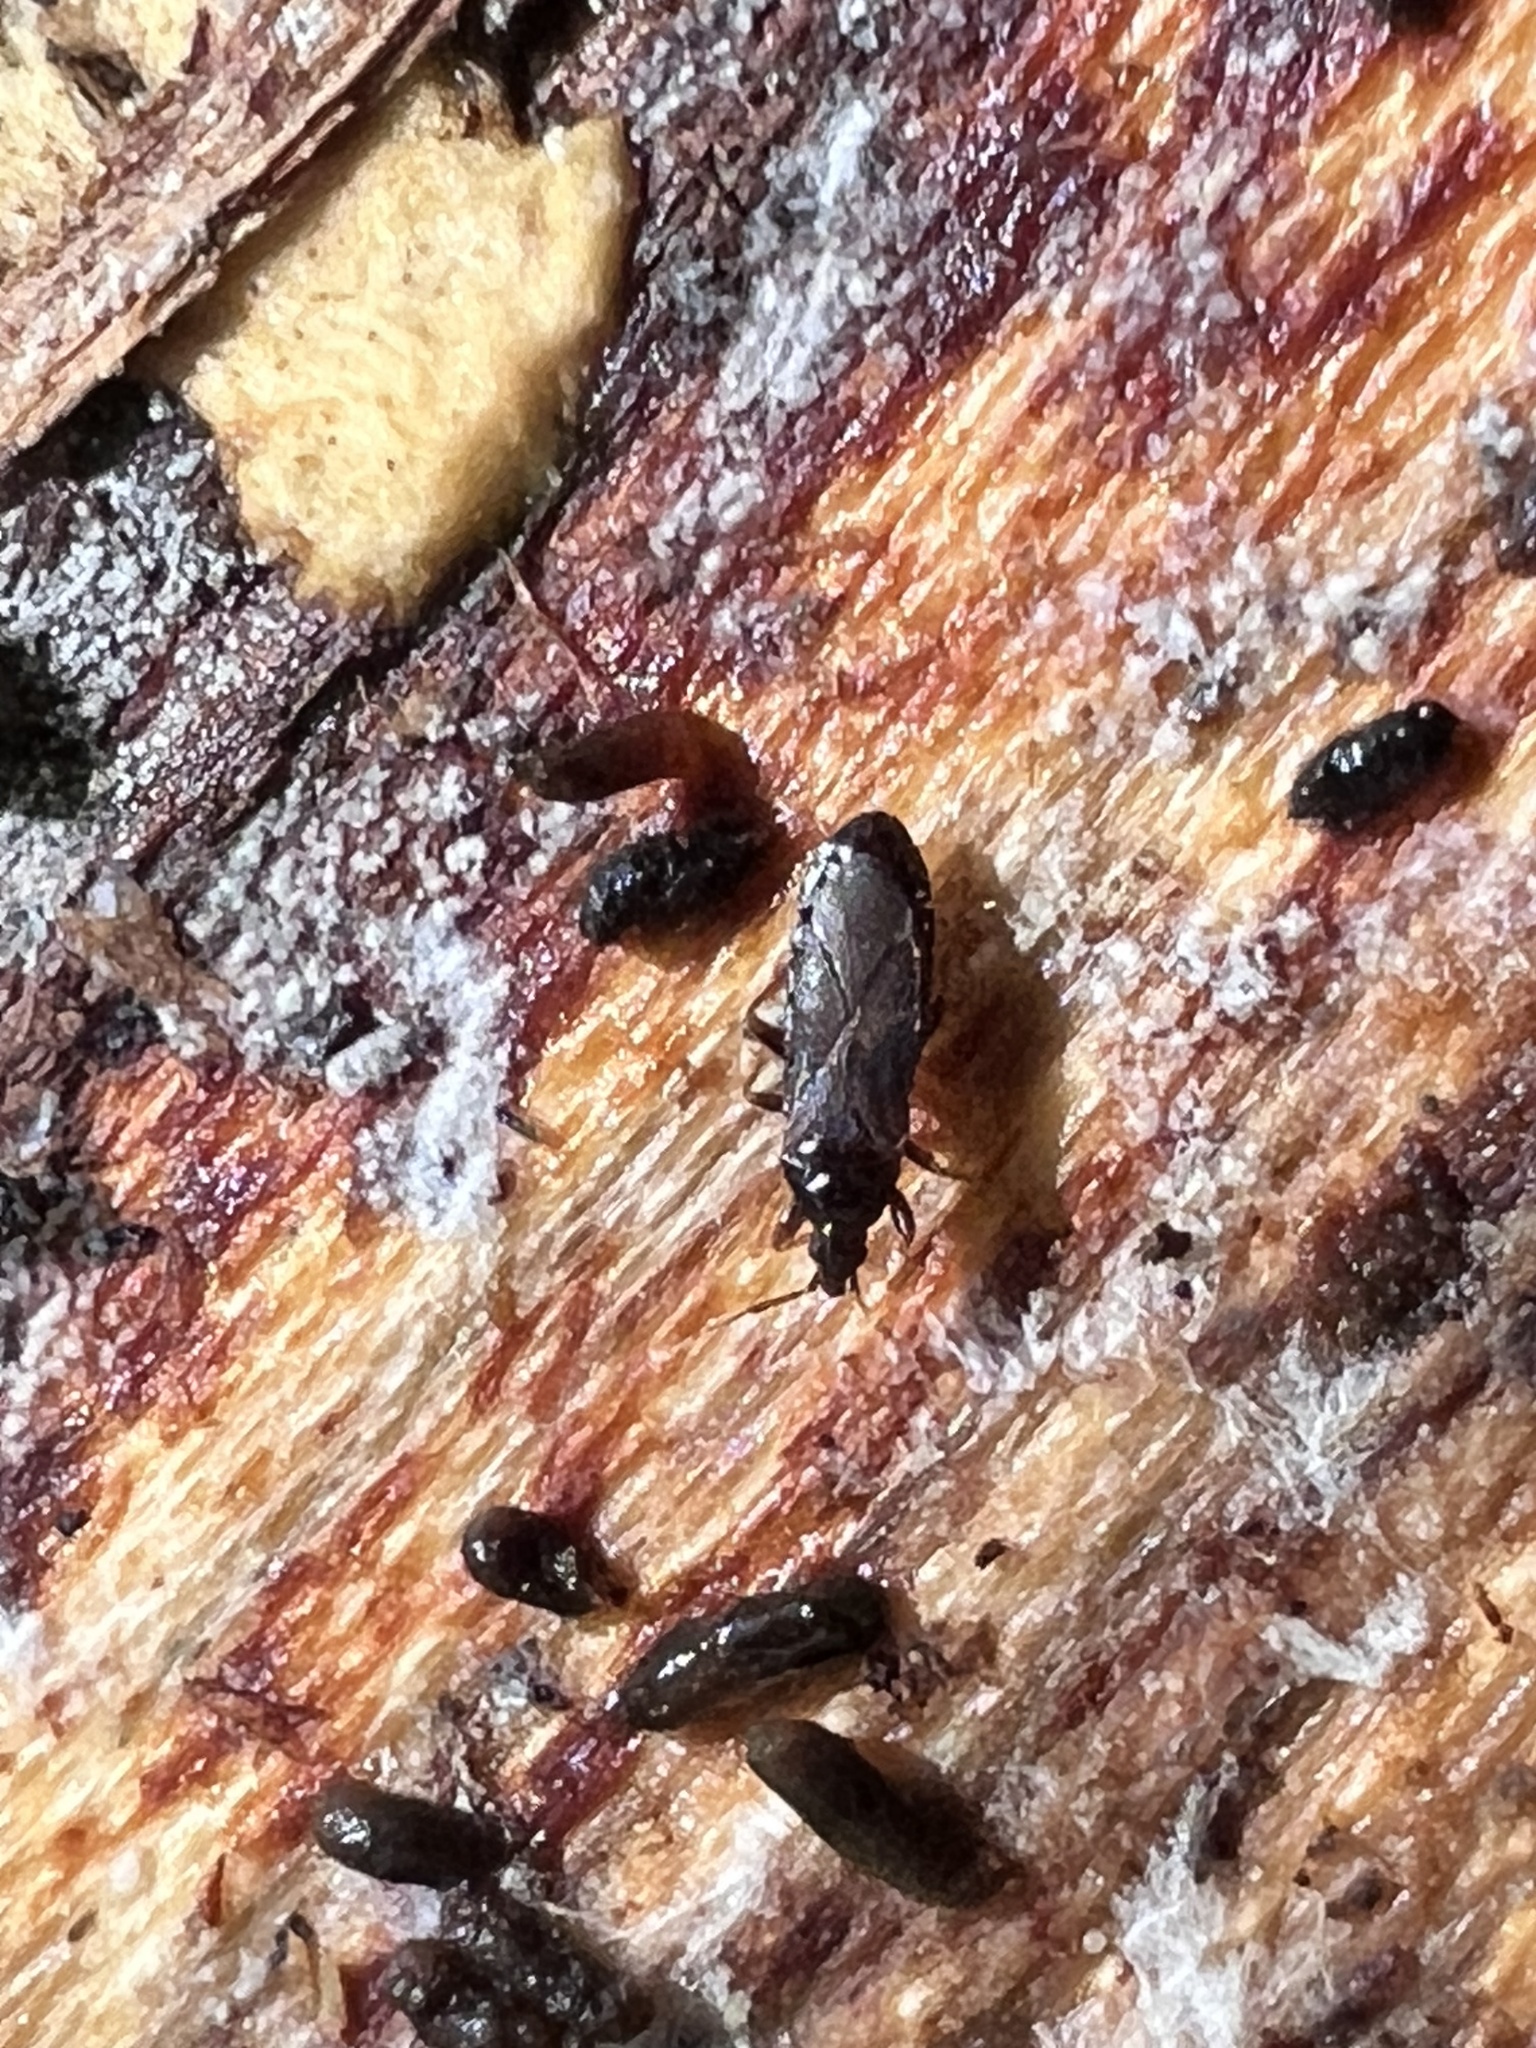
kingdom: Animalia
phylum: Arthropoda
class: Insecta
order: Hemiptera
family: Anthocoridae
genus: Dufouriellus
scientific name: Dufouriellus ater
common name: Minute pirate bug
